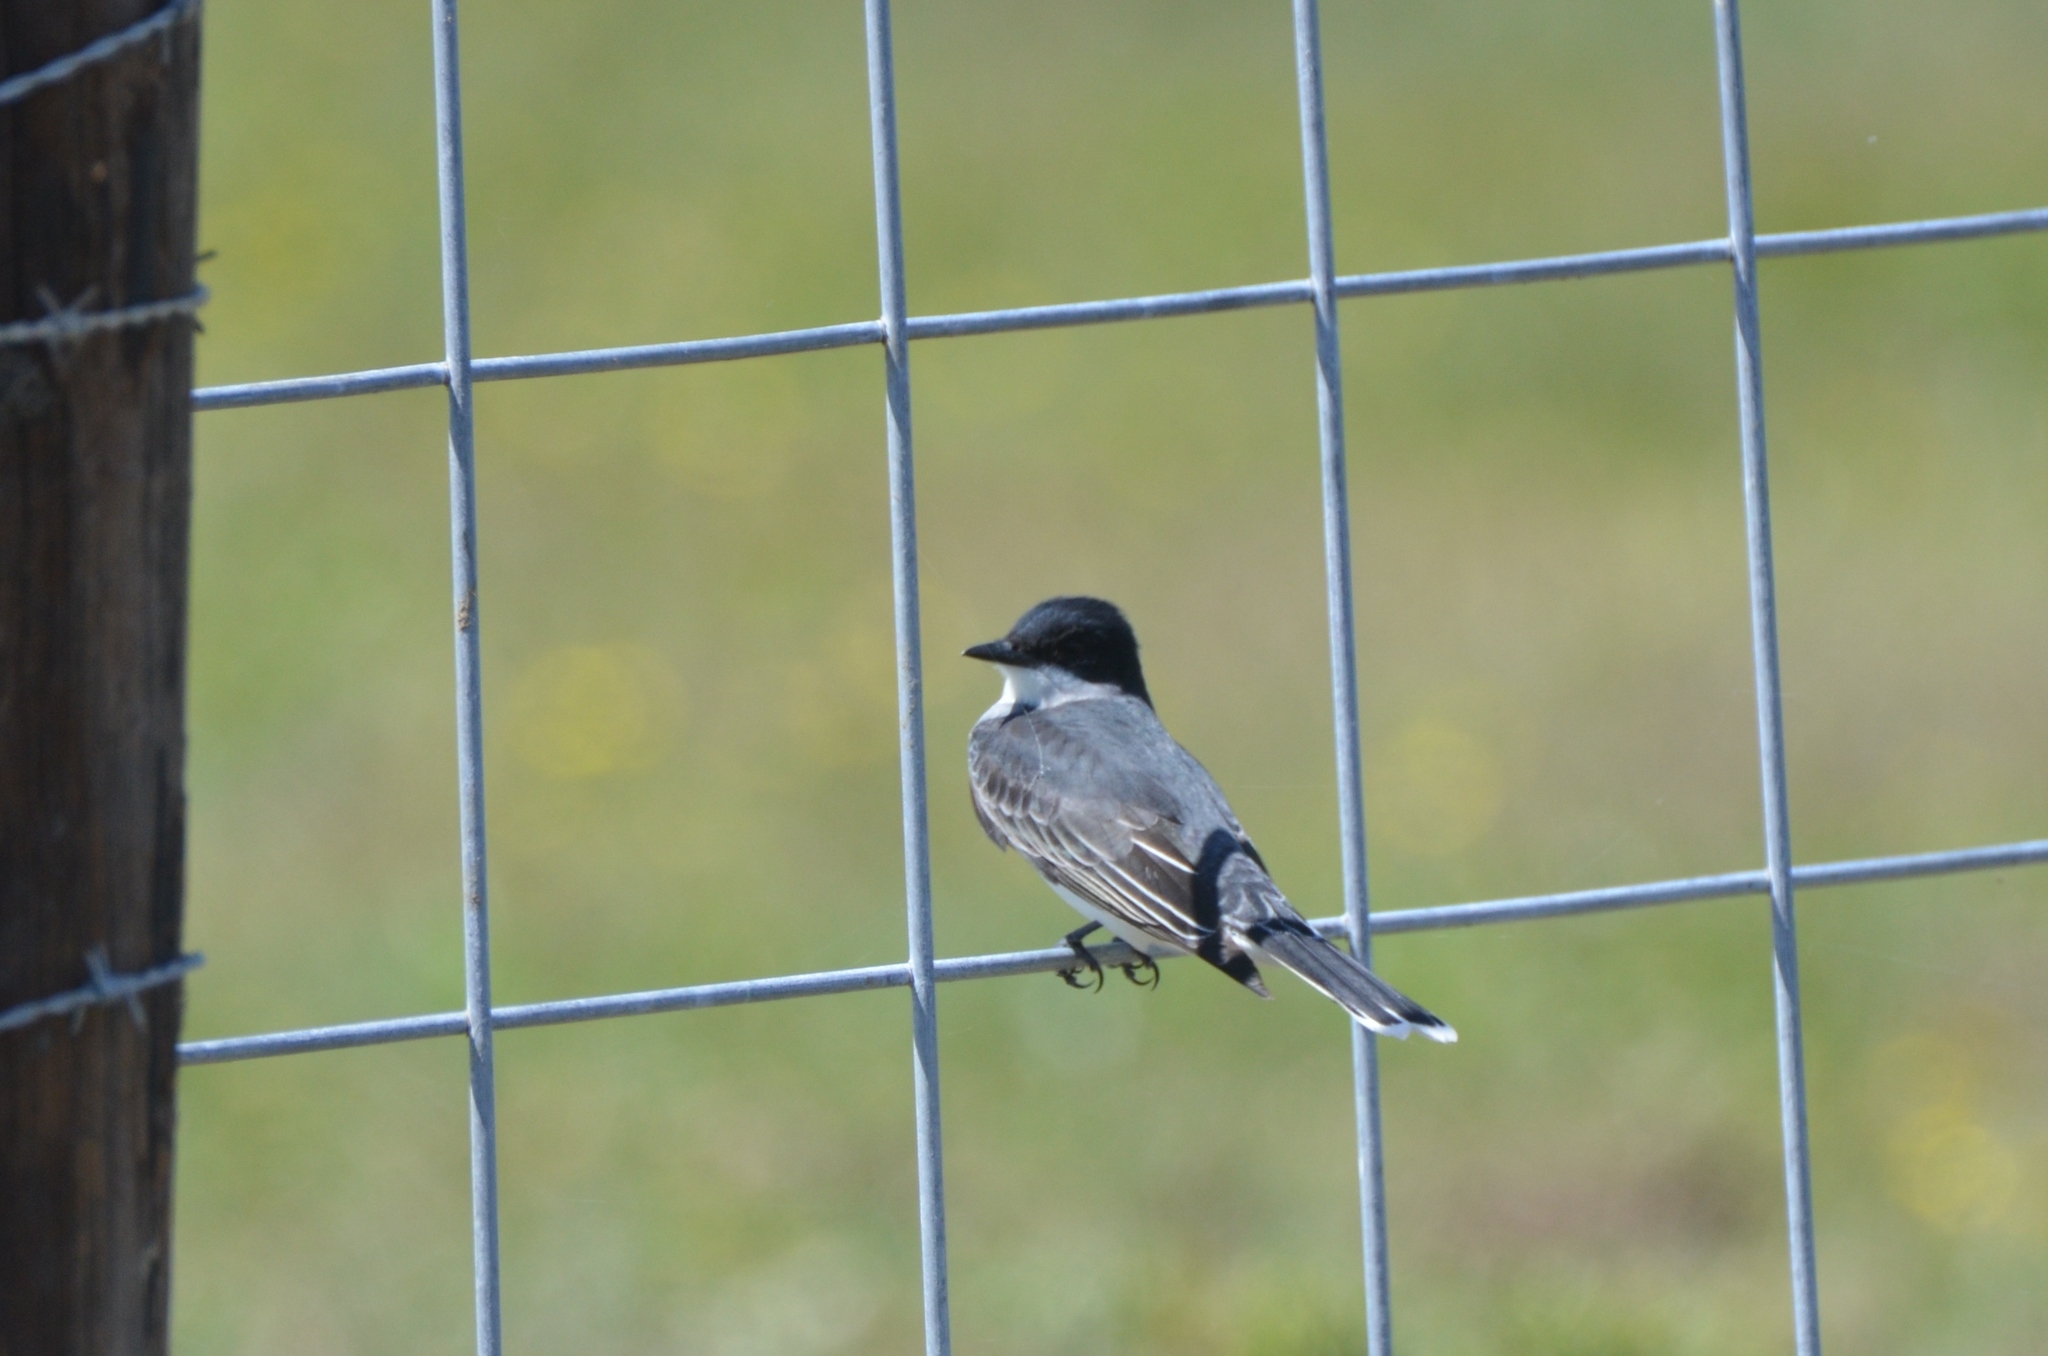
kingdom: Animalia
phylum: Chordata
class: Aves
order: Passeriformes
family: Tyrannidae
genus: Tyrannus
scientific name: Tyrannus tyrannus
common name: Eastern kingbird
